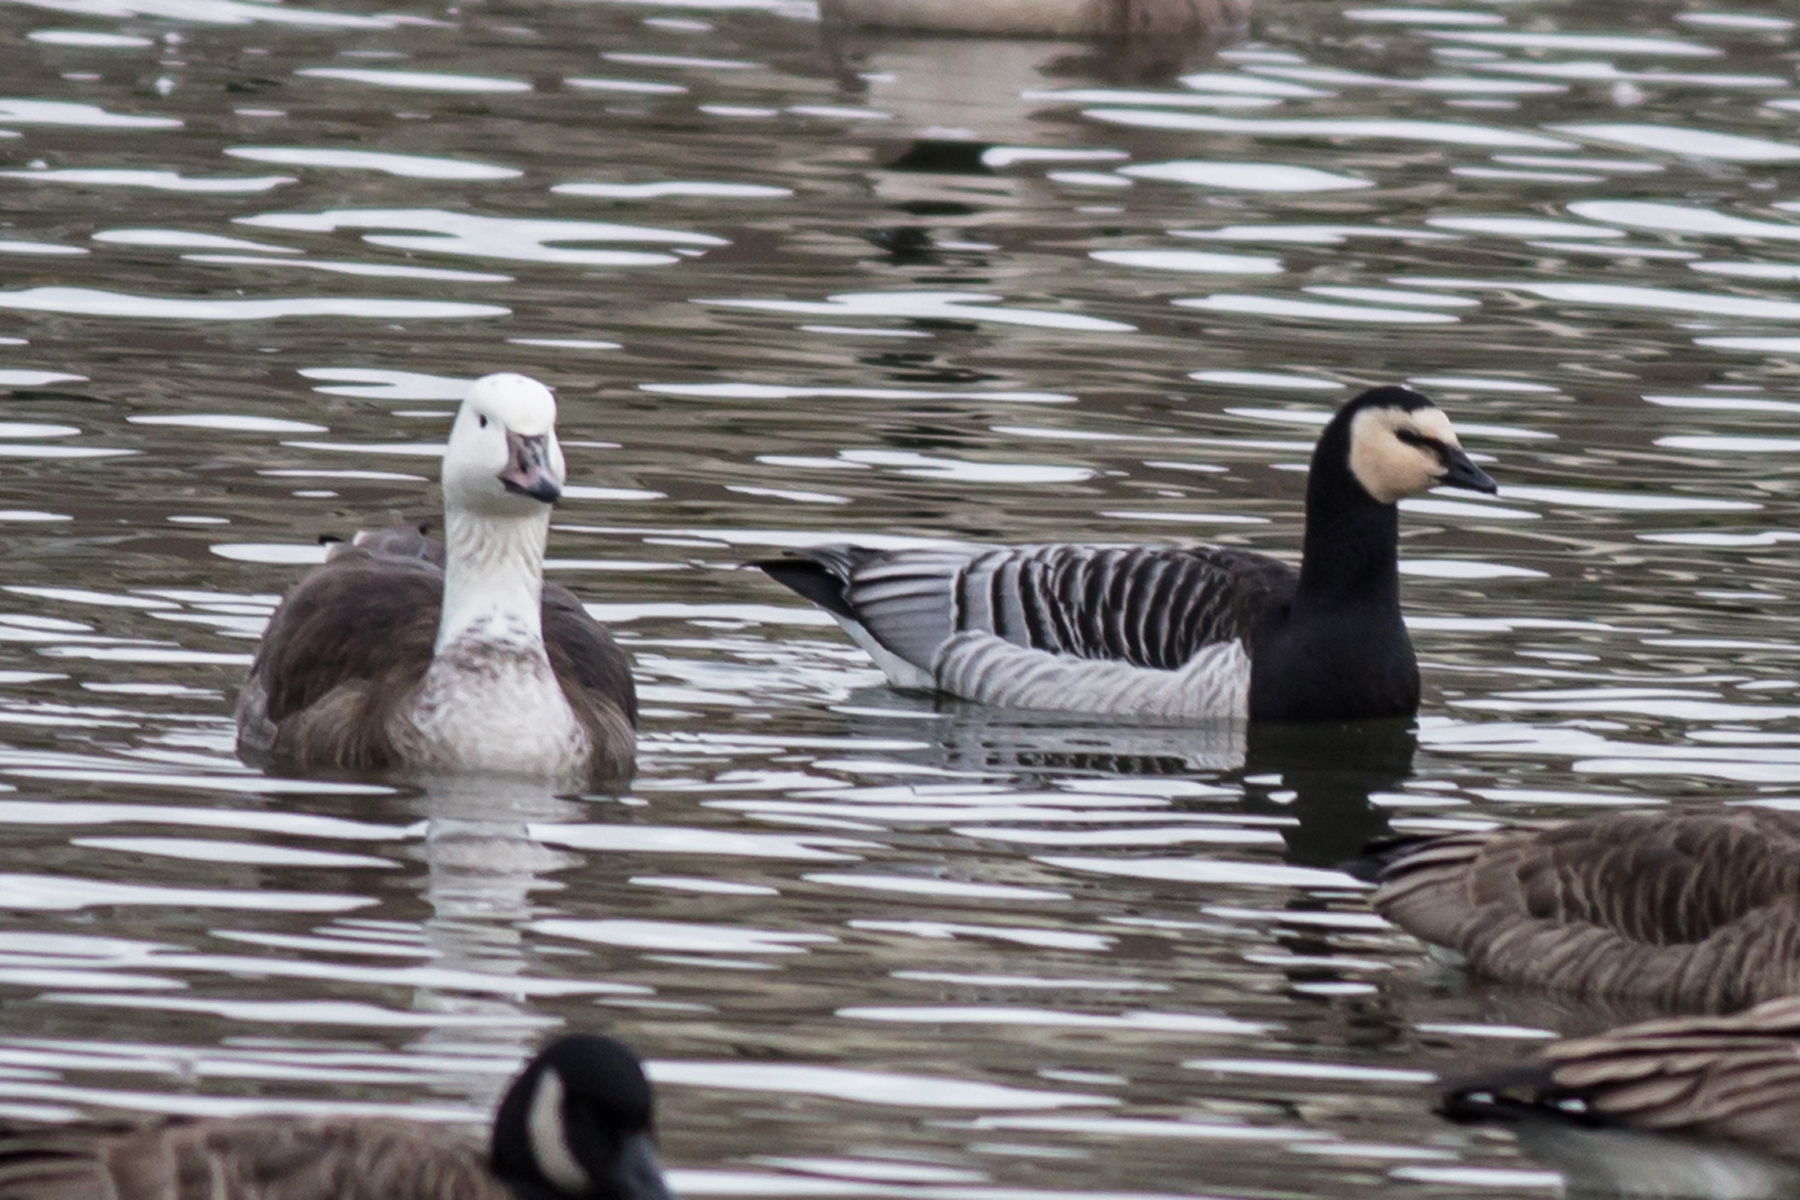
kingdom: Animalia
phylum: Chordata
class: Aves
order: Anseriformes
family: Anatidae
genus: Branta
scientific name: Branta leucopsis
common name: Barnacle goose
